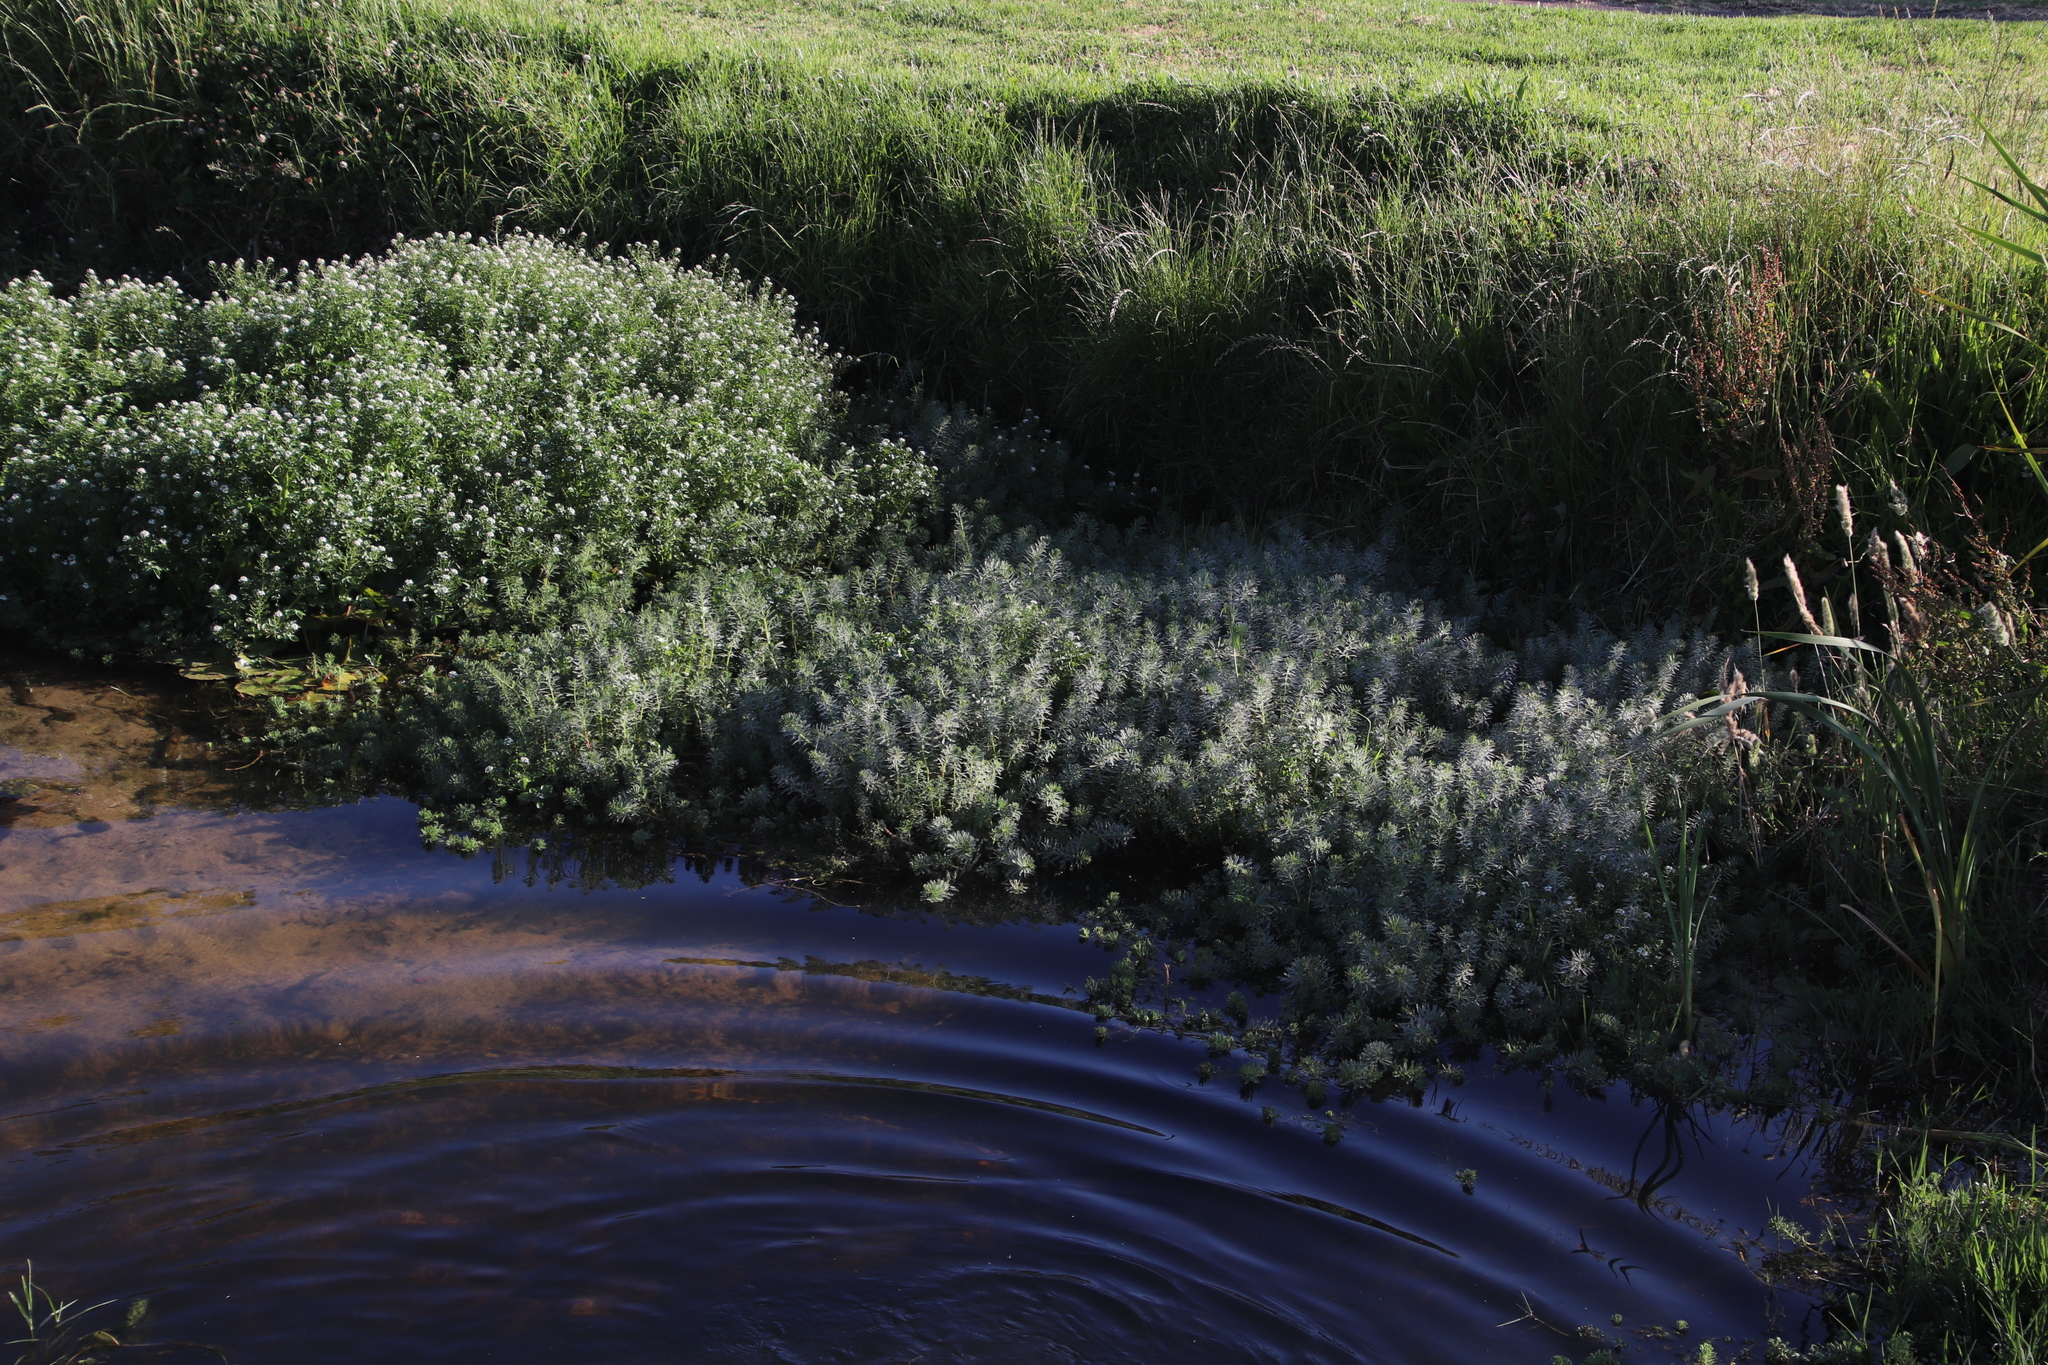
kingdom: Plantae
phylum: Tracheophyta
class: Magnoliopsida
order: Saxifragales
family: Haloragaceae
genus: Myriophyllum
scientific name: Myriophyllum aquaticum
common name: Parrot's feather
